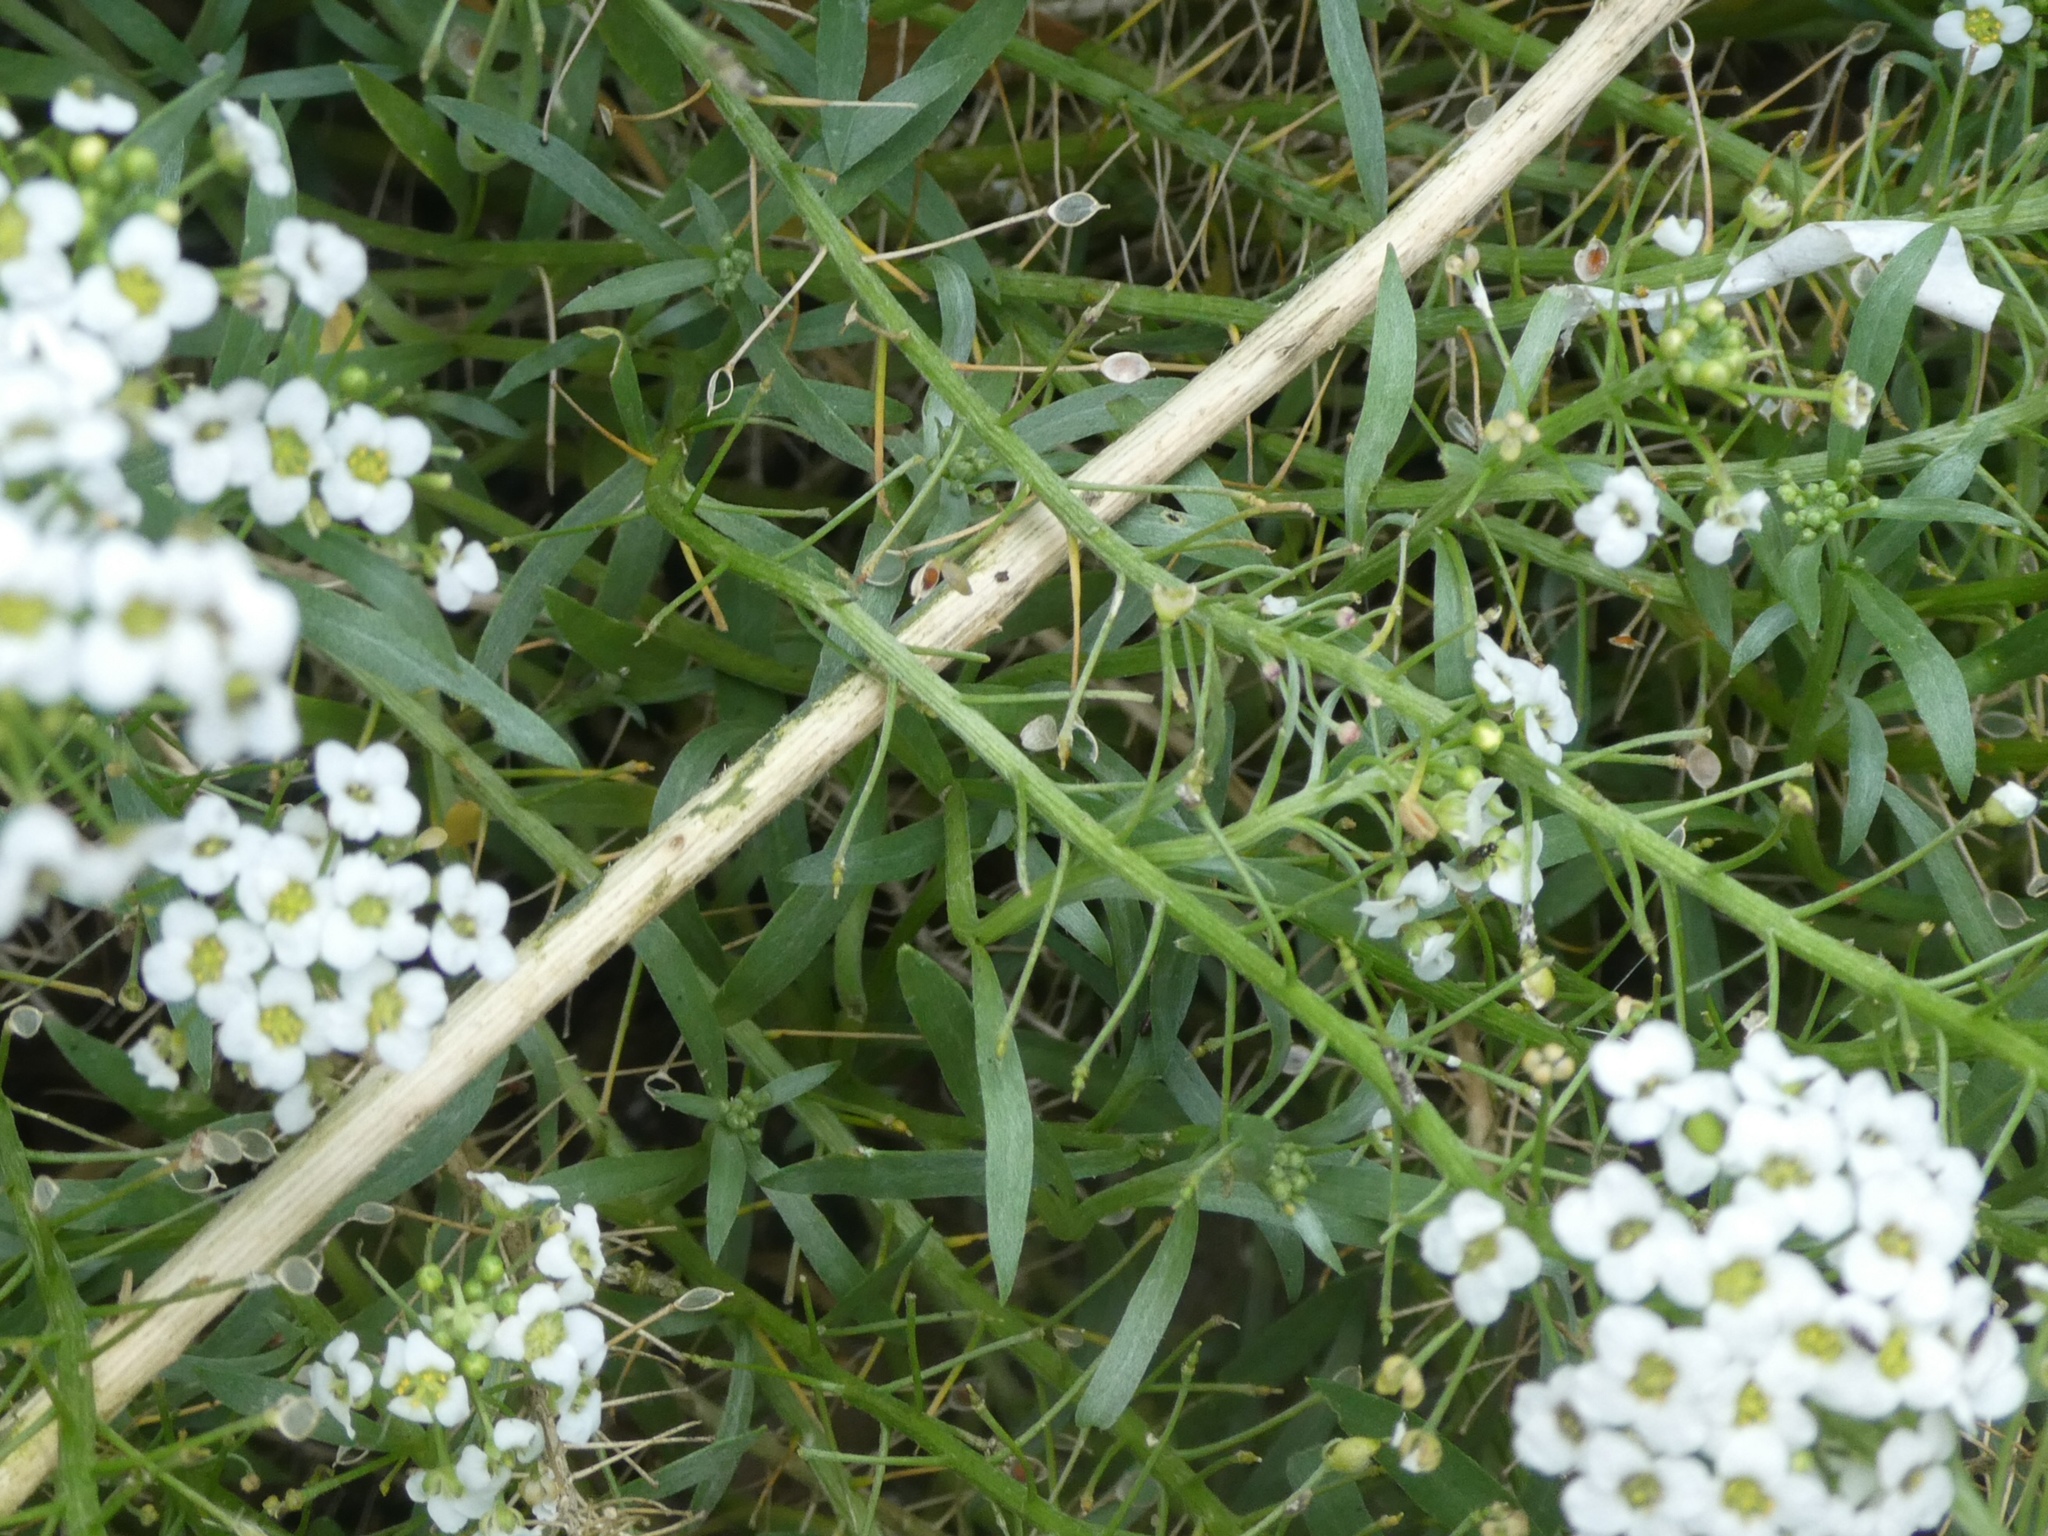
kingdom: Plantae
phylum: Tracheophyta
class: Magnoliopsida
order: Brassicales
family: Brassicaceae
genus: Lobularia
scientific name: Lobularia maritima
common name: Sweet alison
